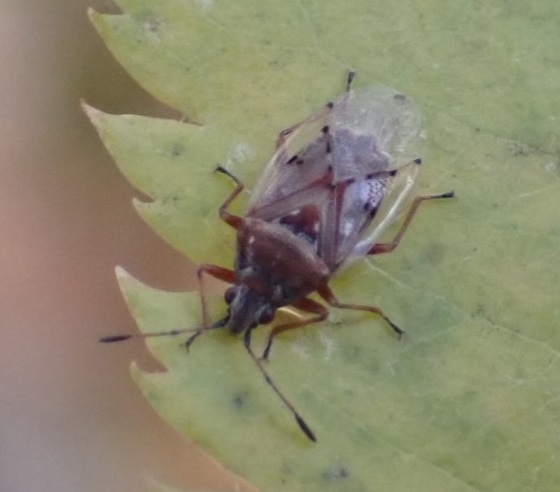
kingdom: Animalia
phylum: Arthropoda
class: Insecta
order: Hemiptera
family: Lygaeidae
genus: Kleidocerys
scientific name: Kleidocerys resedae
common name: Birch catkin bug
